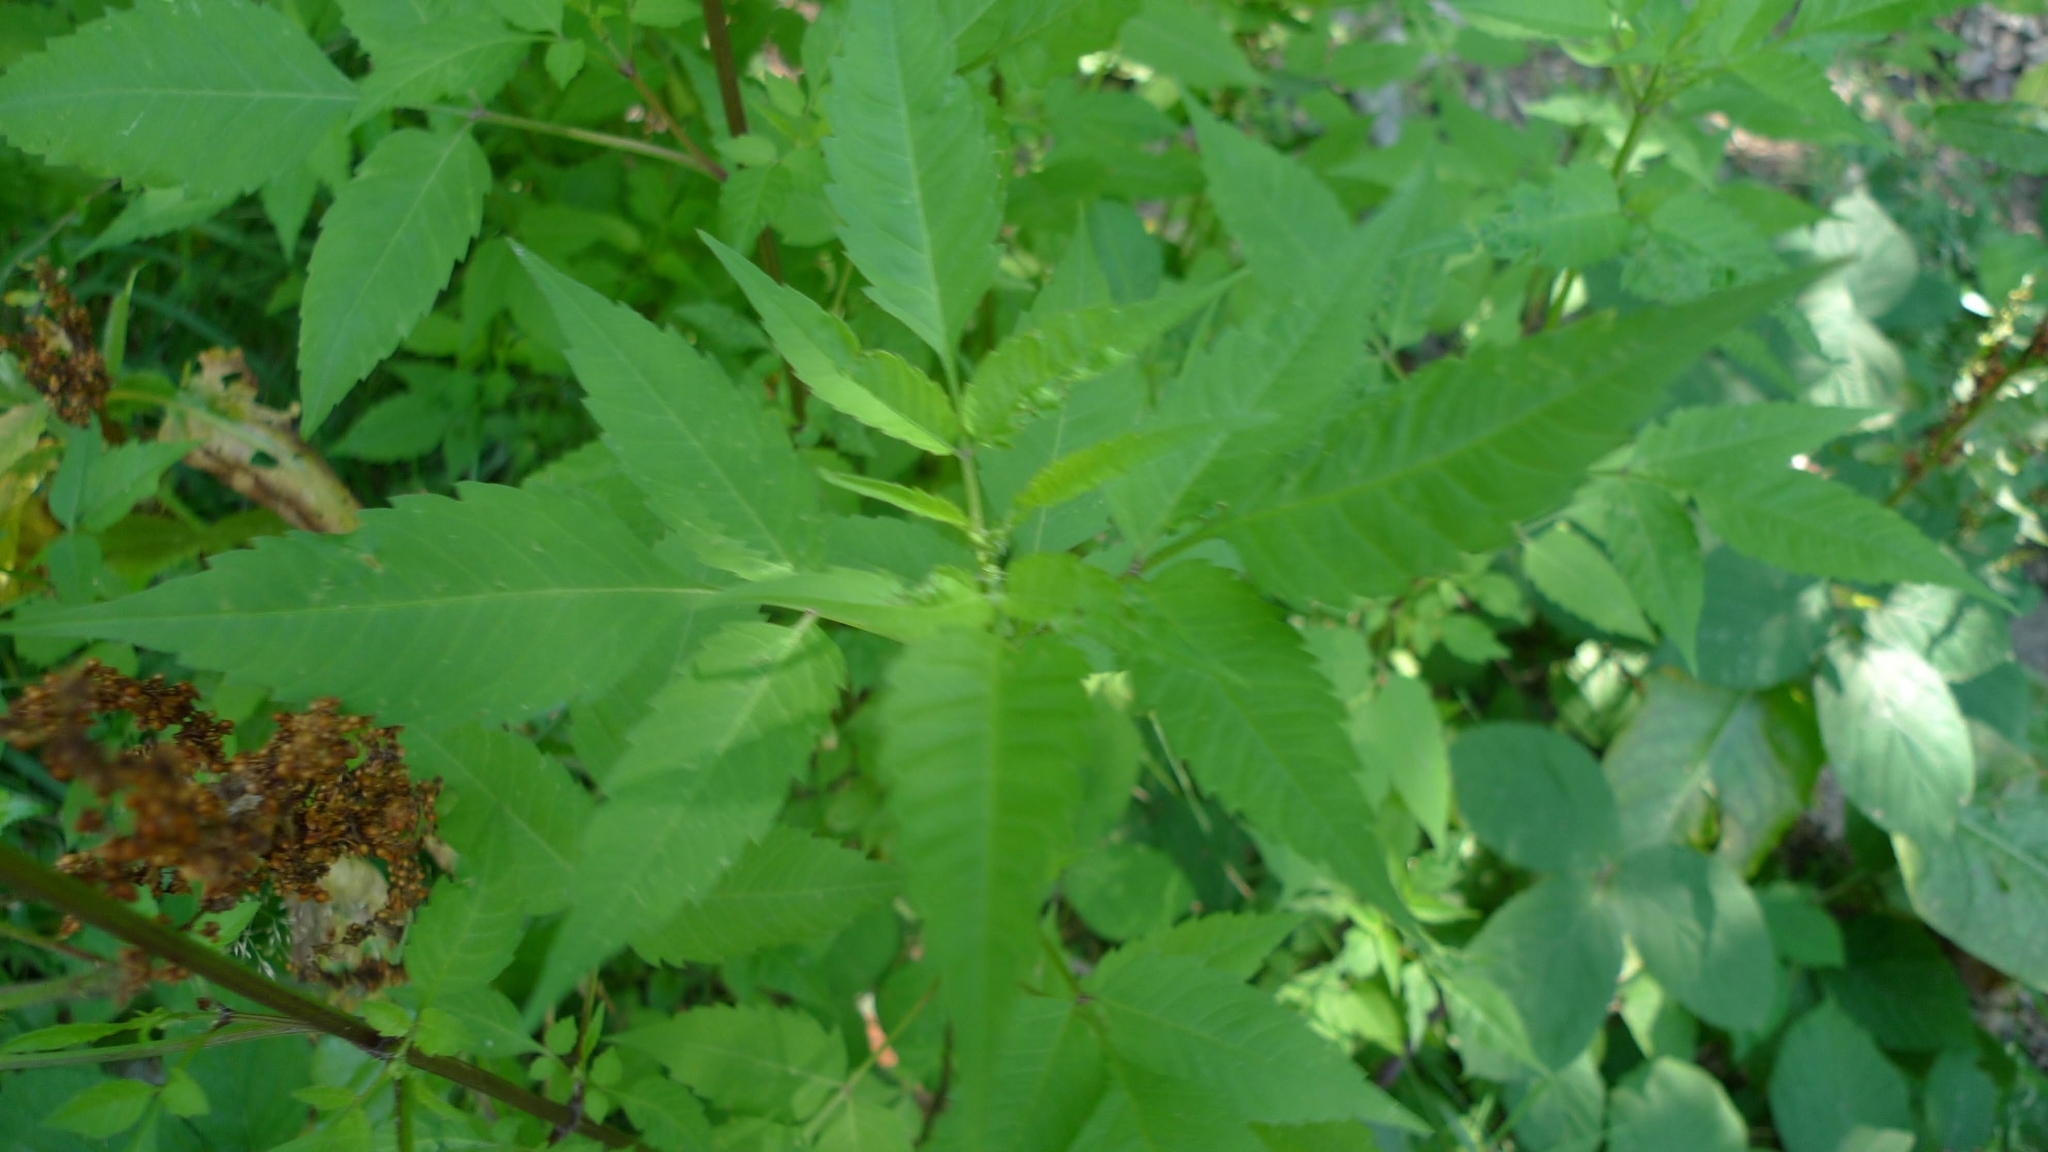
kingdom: Plantae
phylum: Tracheophyta
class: Magnoliopsida
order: Asterales
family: Asteraceae
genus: Bidens
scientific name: Bidens frondosa
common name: Beggarticks
